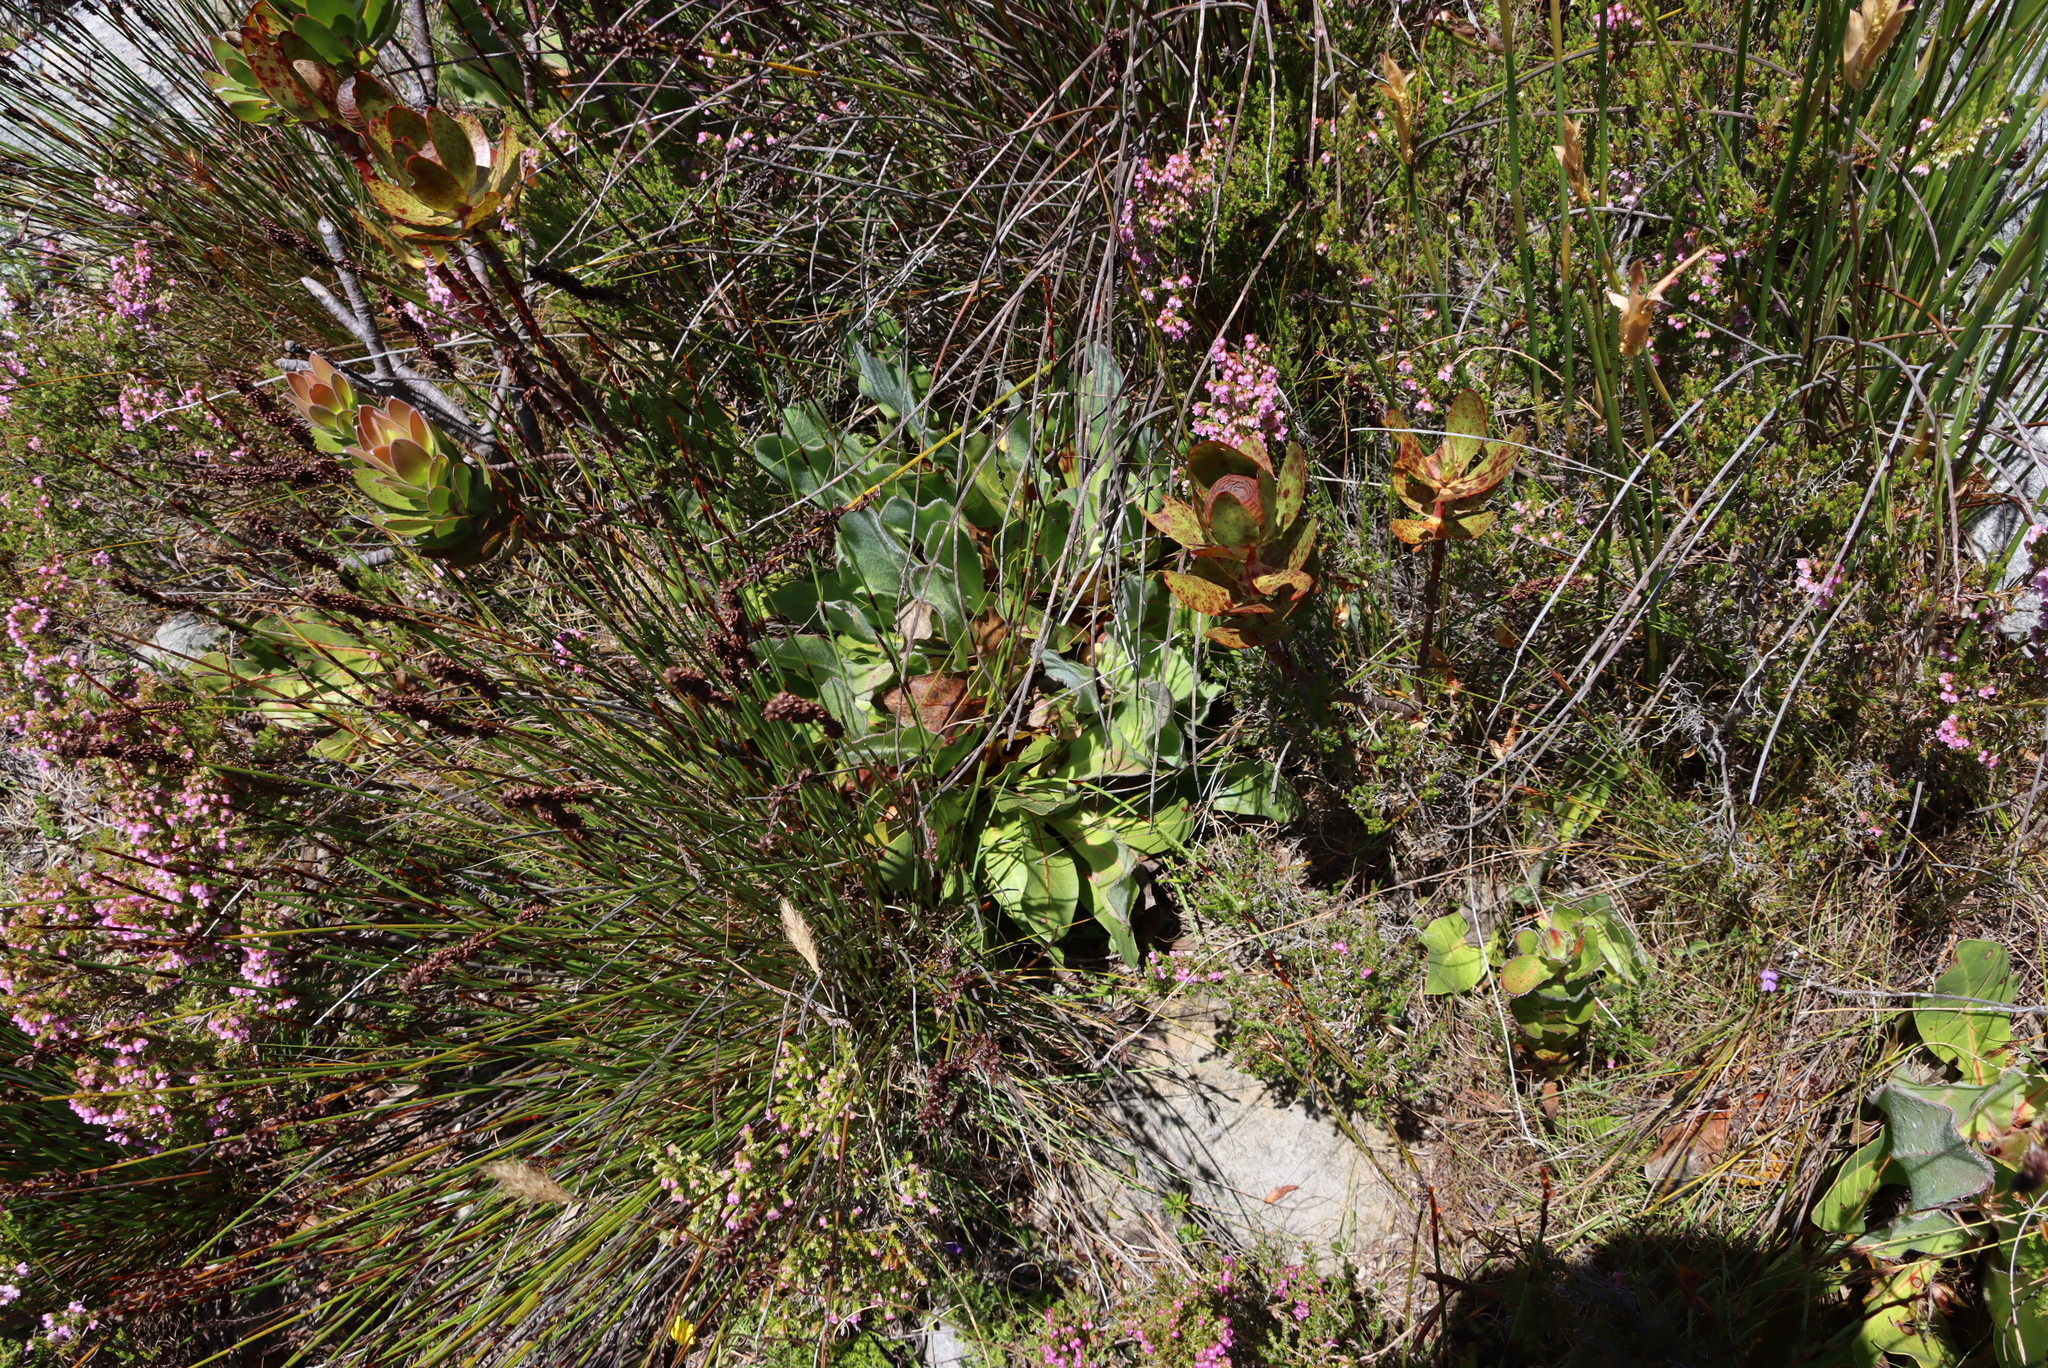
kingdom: Plantae
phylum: Tracheophyta
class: Magnoliopsida
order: Proteales
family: Proteaceae
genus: Protea
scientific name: Protea caespitosa
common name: Bishop sugarbush
